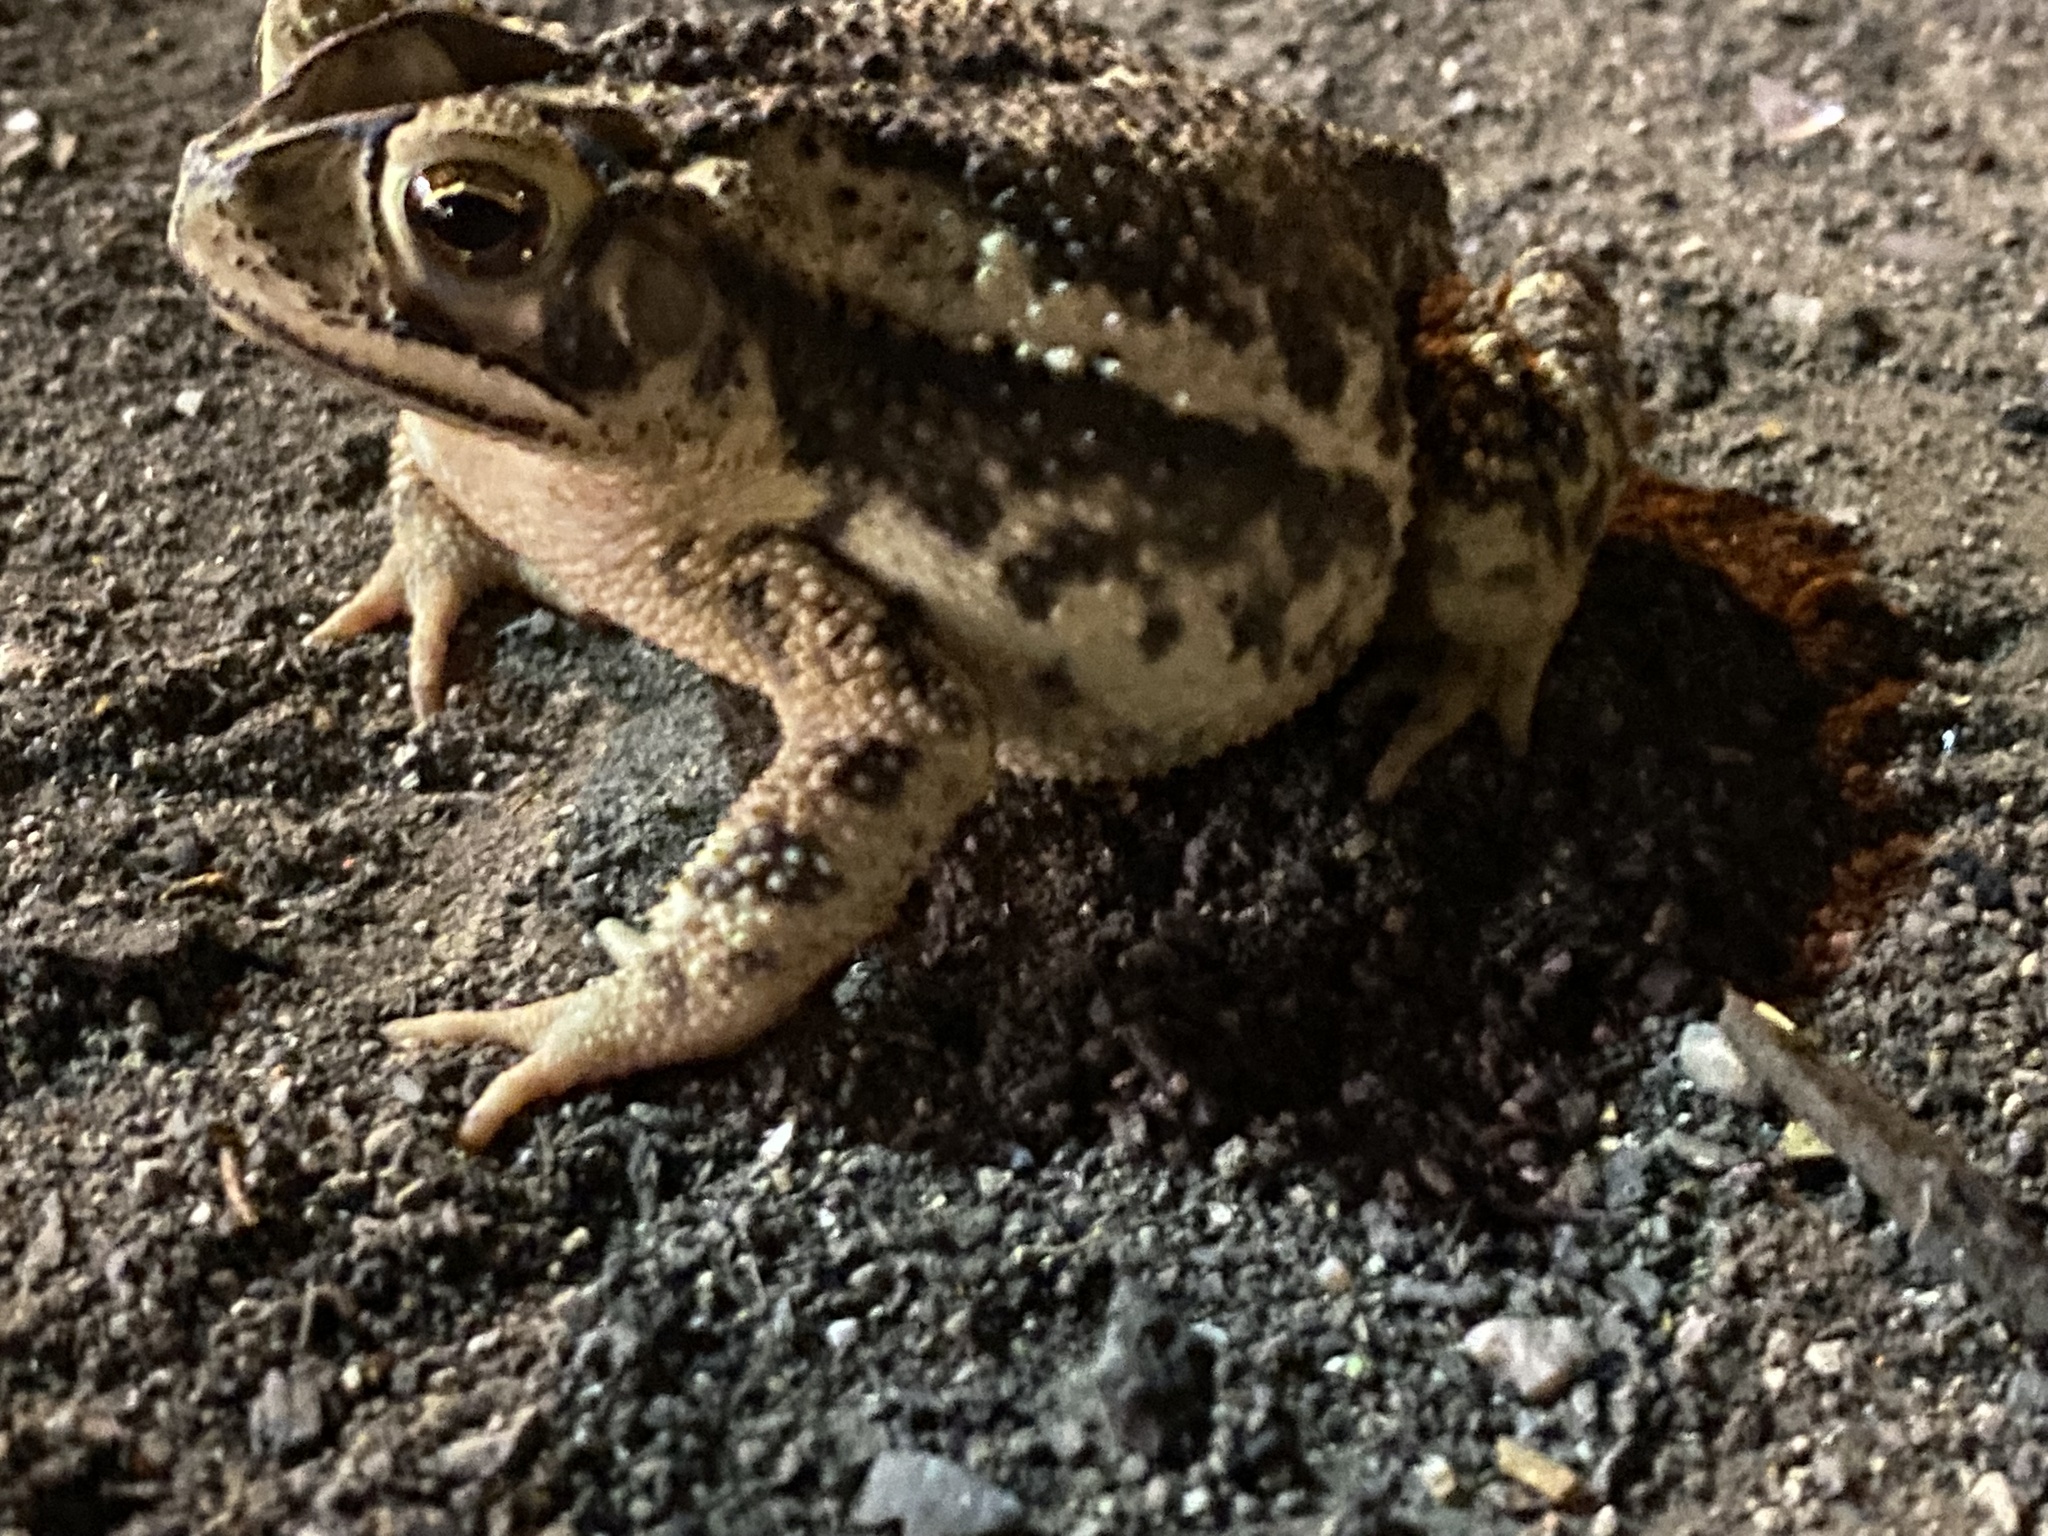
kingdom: Animalia
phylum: Chordata
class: Amphibia
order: Anura
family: Bufonidae
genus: Incilius
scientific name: Incilius nebulifer
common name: Gulf coast toad
